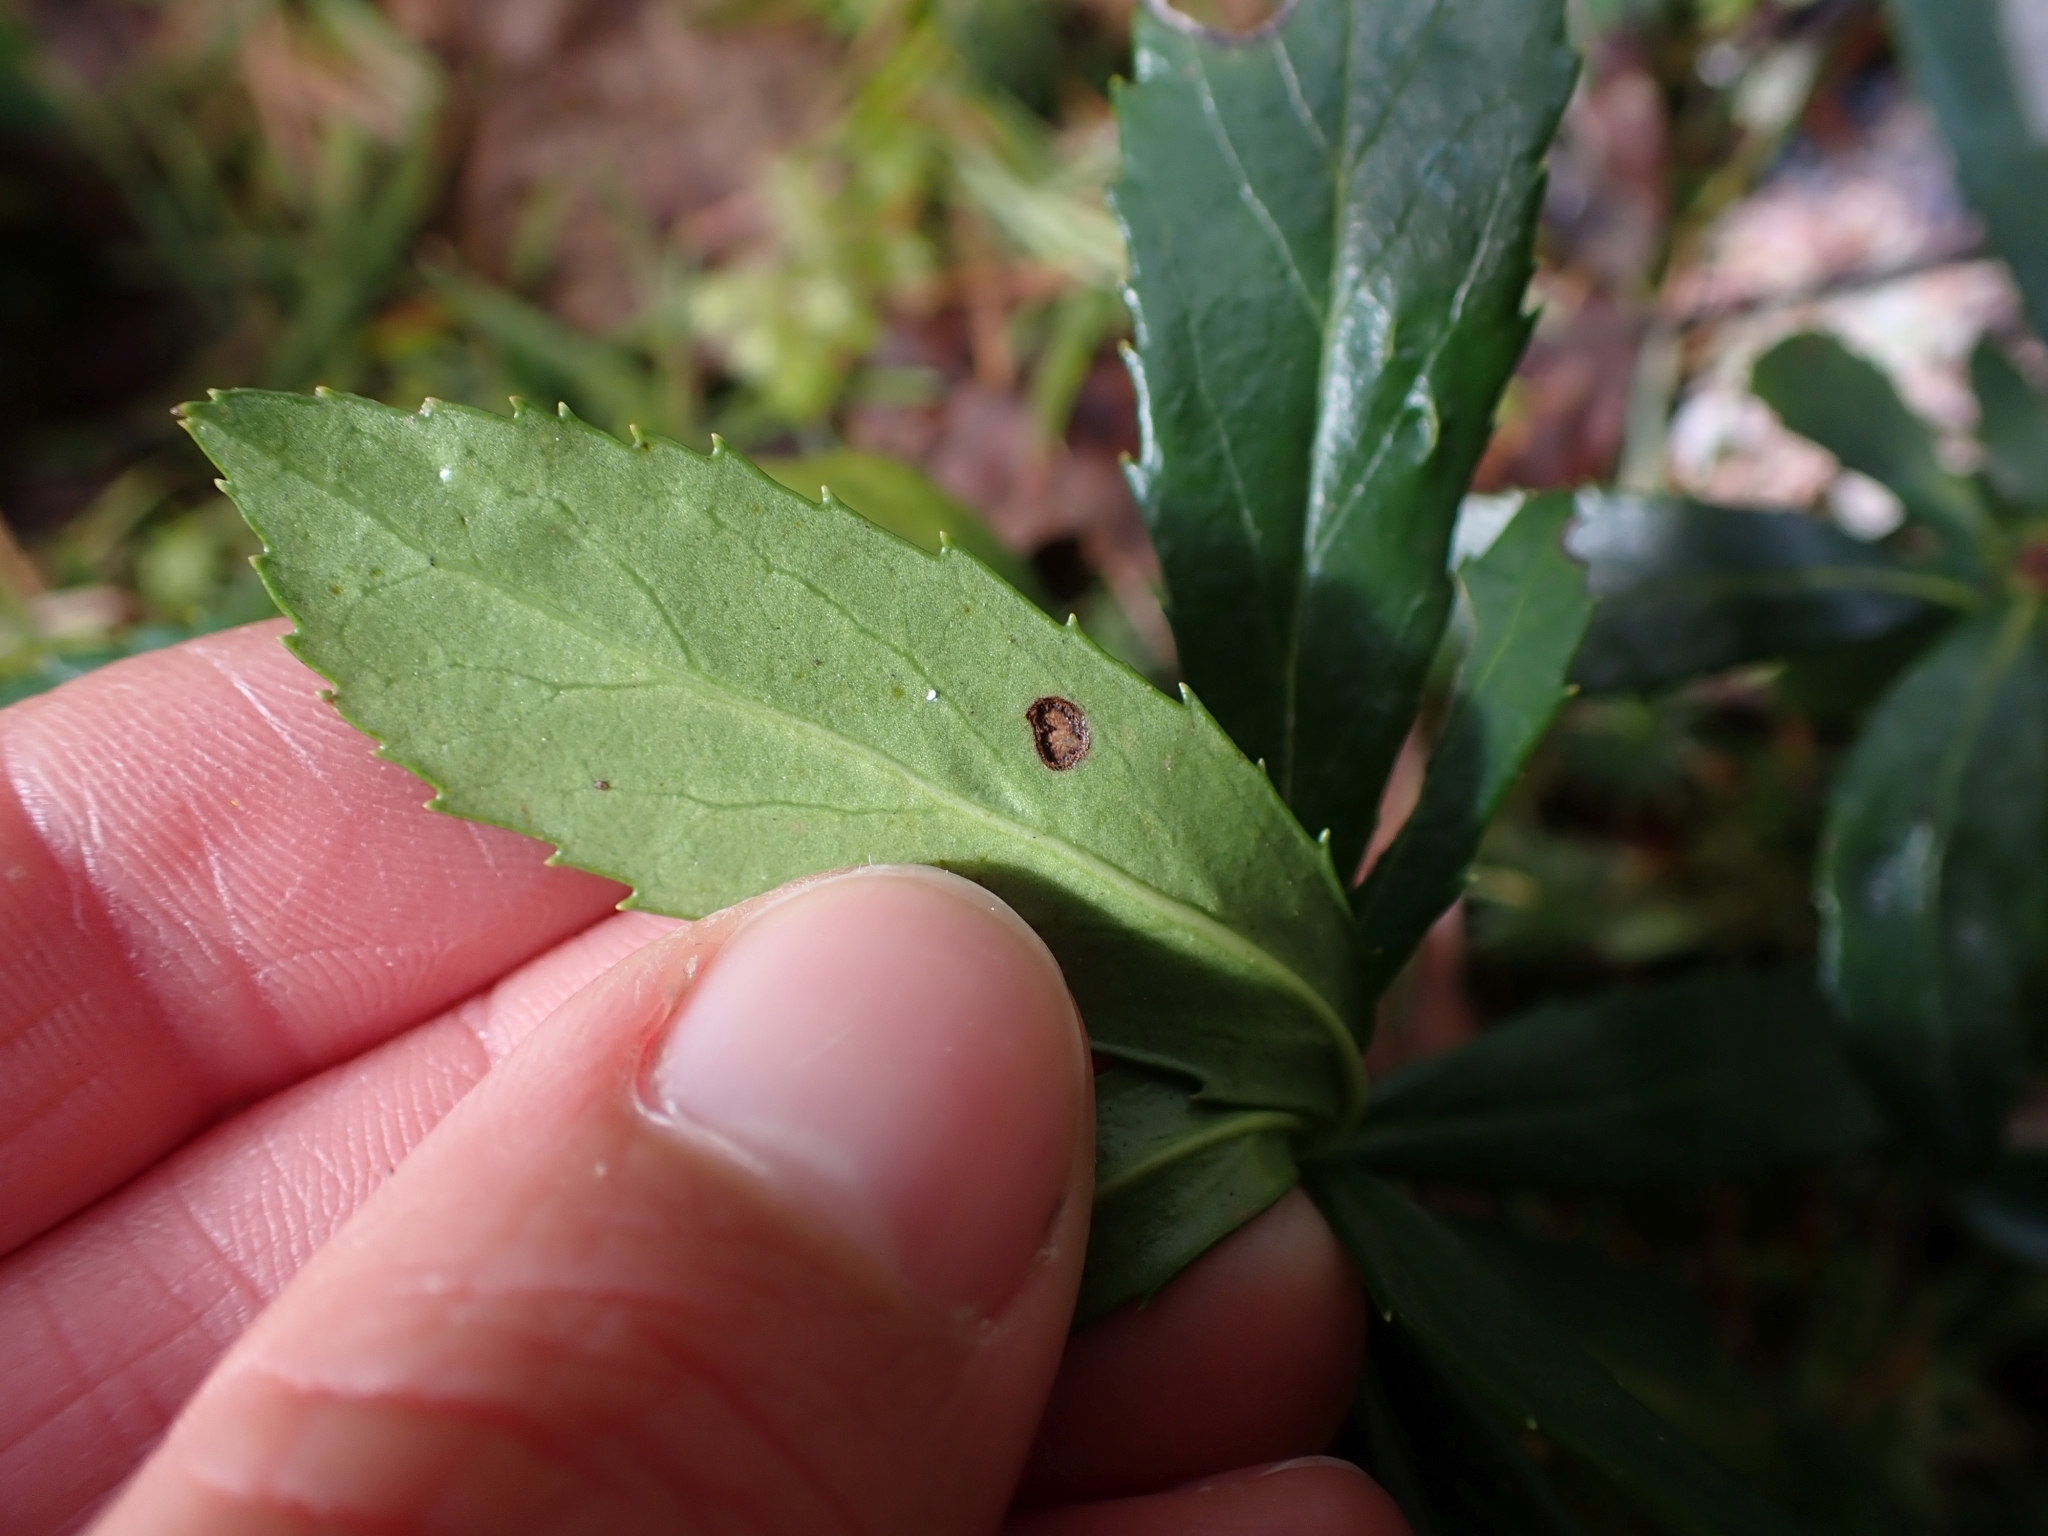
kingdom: Plantae
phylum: Tracheophyta
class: Magnoliopsida
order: Ericales
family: Ericaceae
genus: Chimaphila
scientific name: Chimaphila umbellata
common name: Pipsissewa
